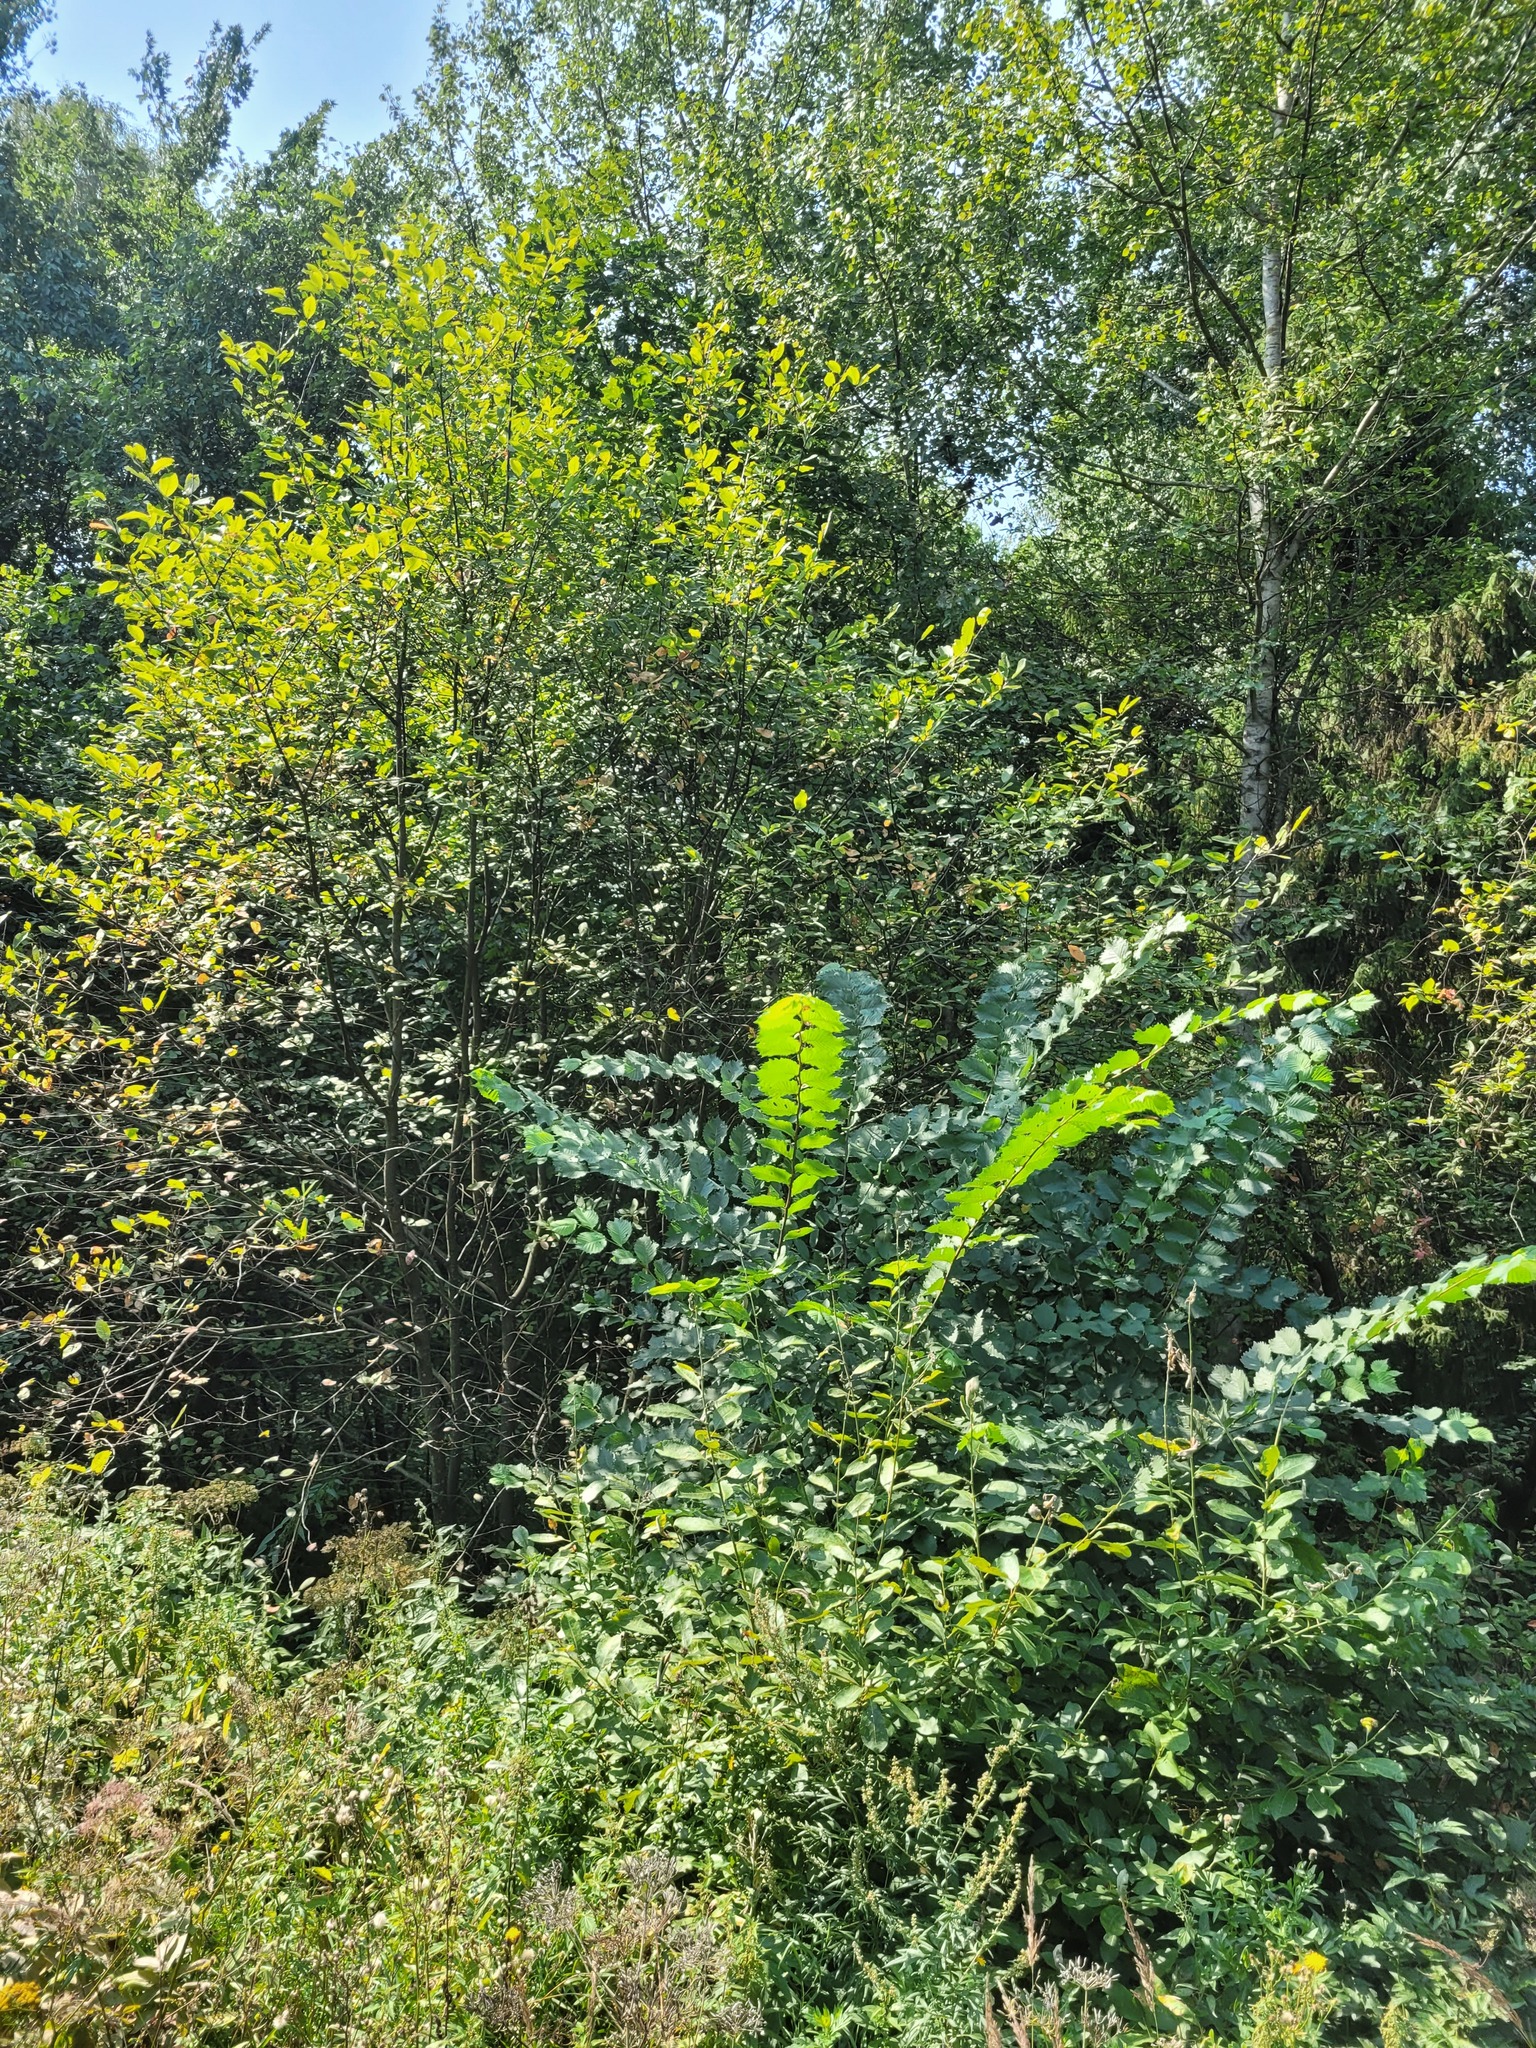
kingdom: Plantae
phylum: Tracheophyta
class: Magnoliopsida
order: Rosales
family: Ulmaceae
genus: Ulmus
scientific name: Ulmus laevis
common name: European white-elm
